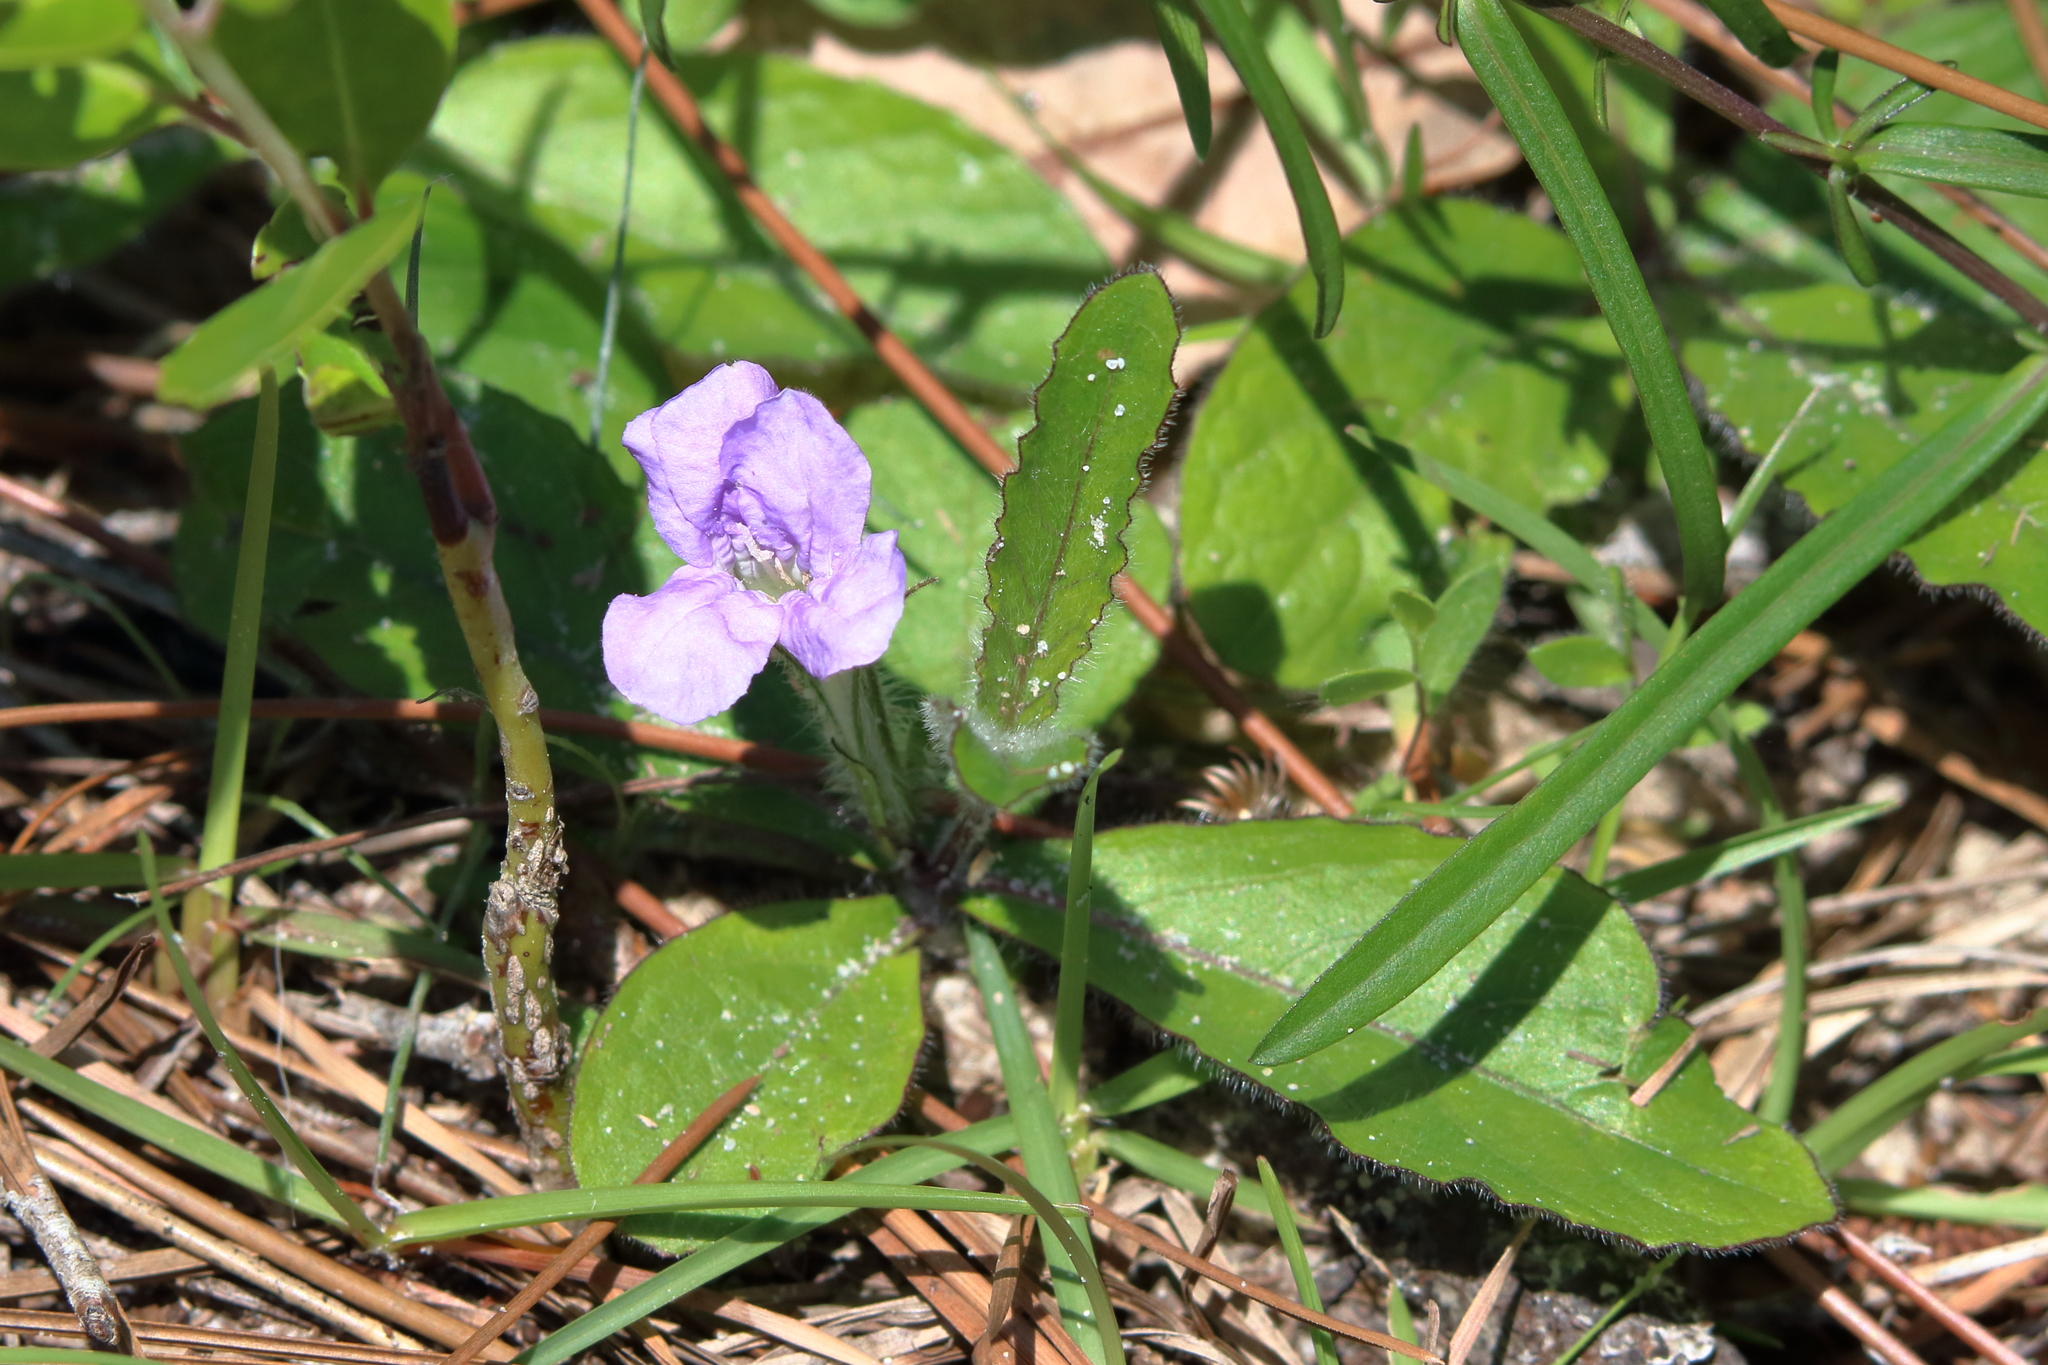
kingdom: Plantae
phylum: Tracheophyta
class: Magnoliopsida
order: Lamiales
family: Acanthaceae
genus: Ruellia
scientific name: Ruellia caroliniensis
